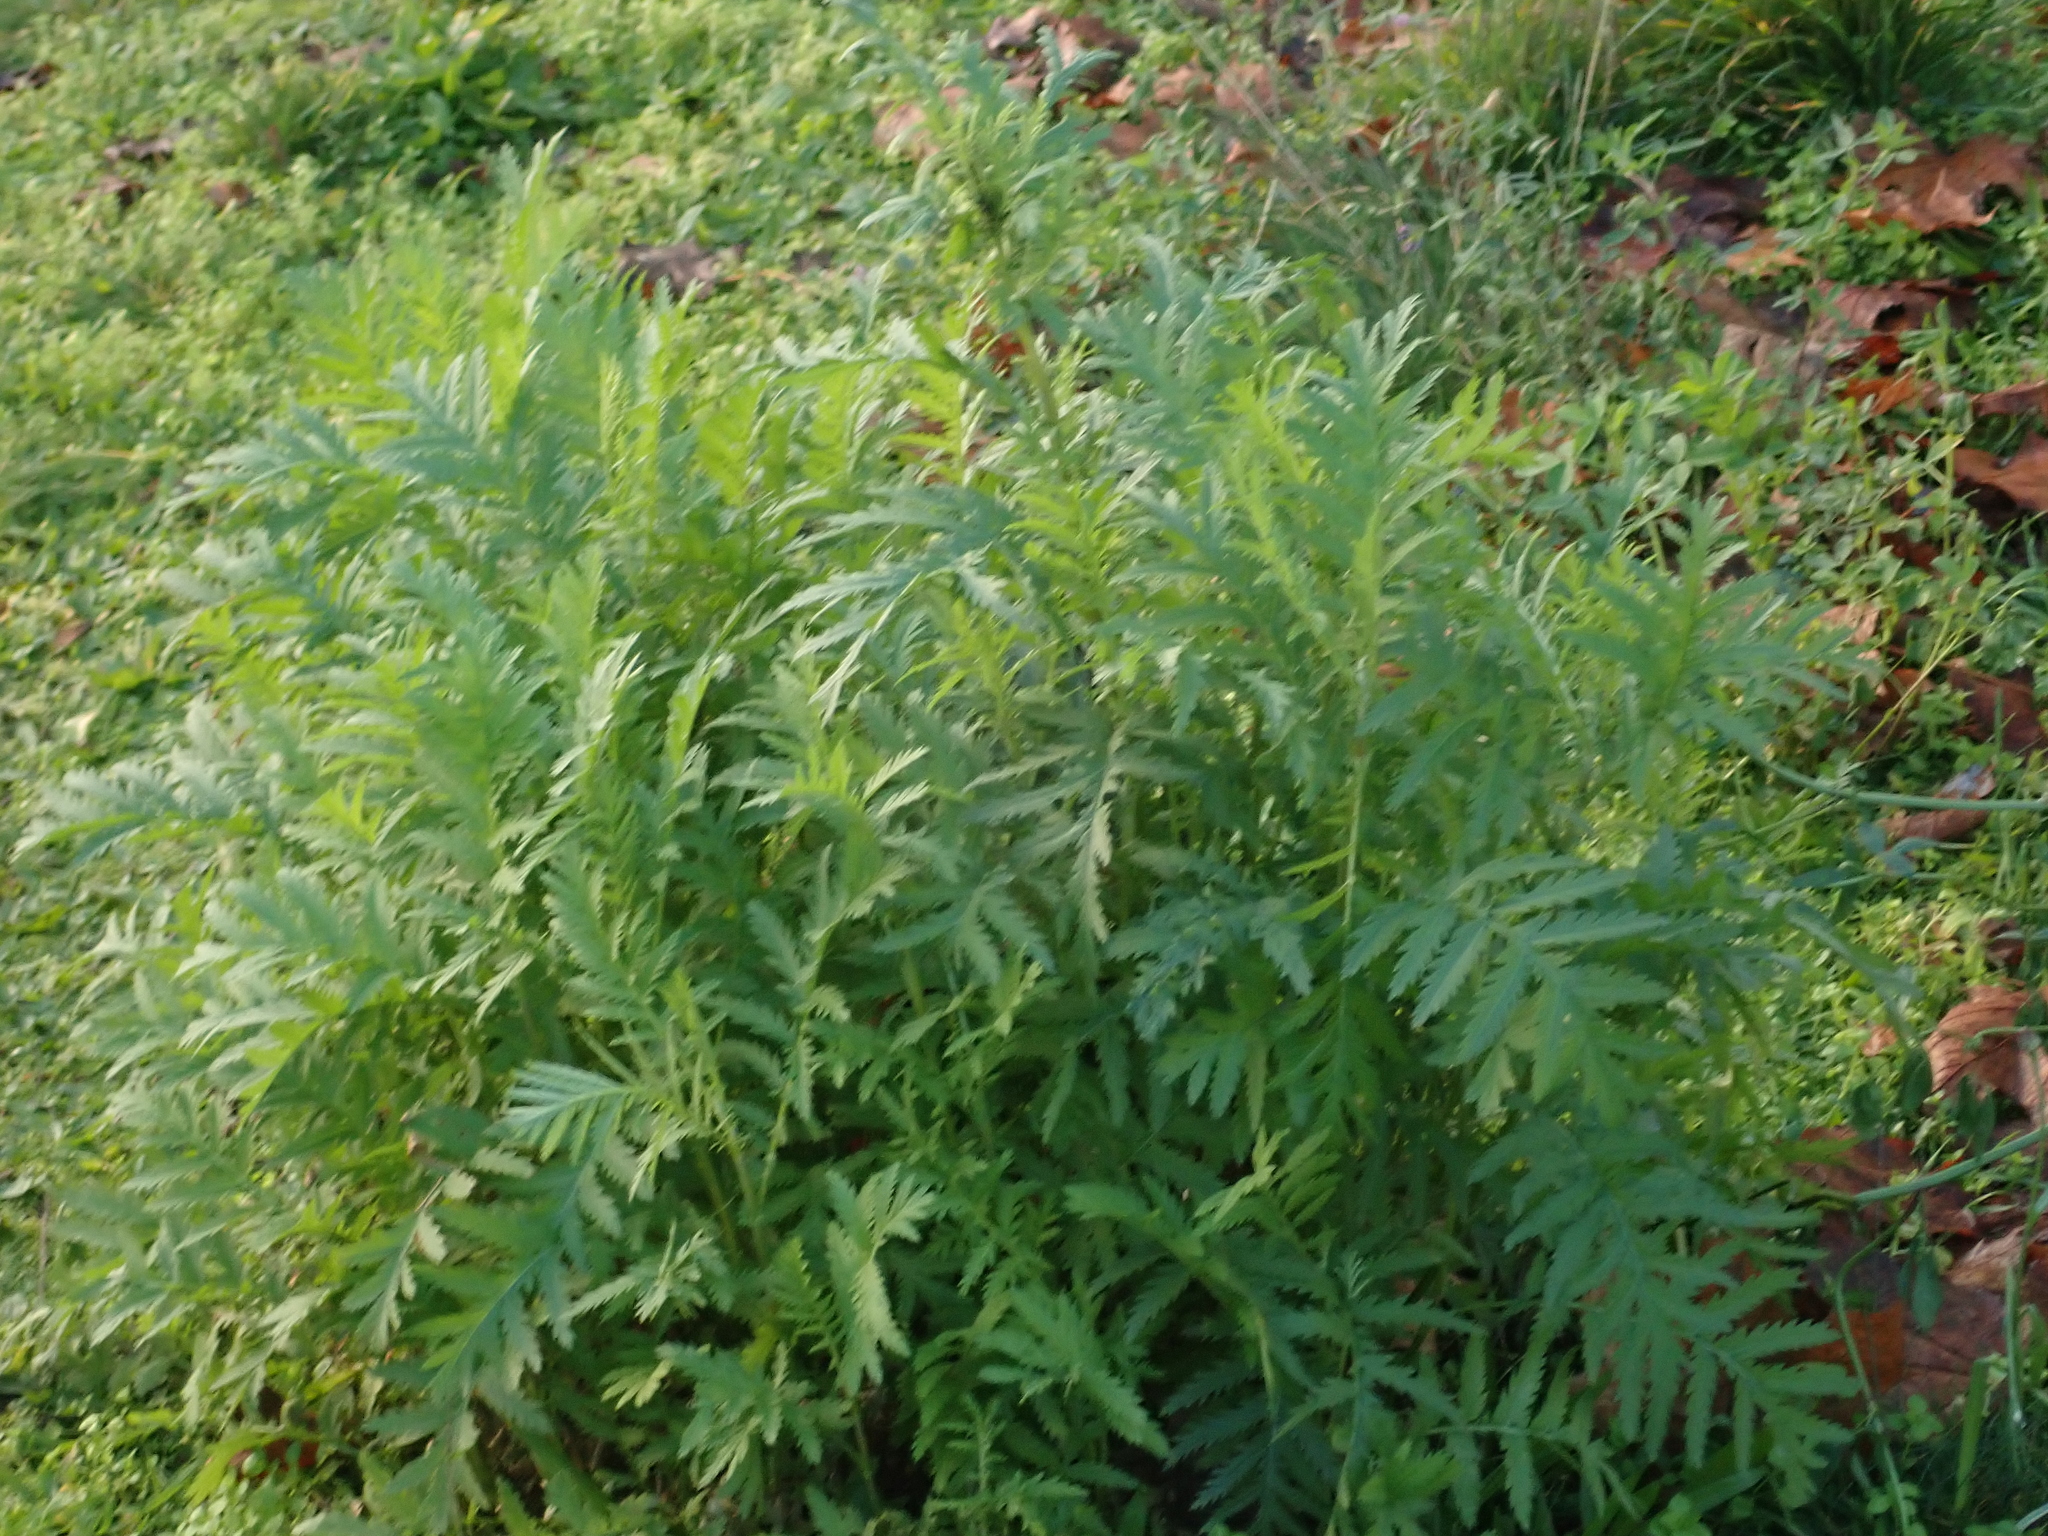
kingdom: Plantae
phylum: Tracheophyta
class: Magnoliopsida
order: Asterales
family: Asteraceae
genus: Tanacetum
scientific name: Tanacetum vulgare
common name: Common tansy
